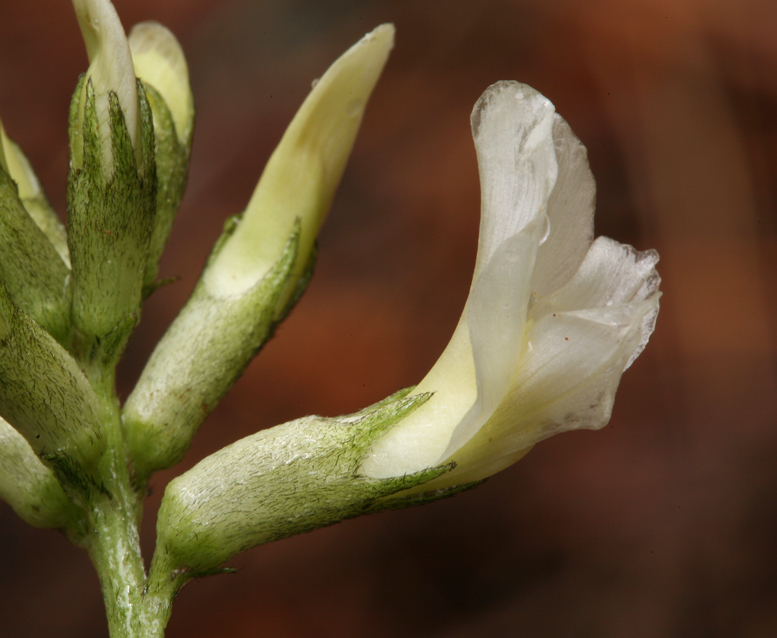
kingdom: Plantae
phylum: Tracheophyta
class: Magnoliopsida
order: Fabales
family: Fabaceae
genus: Astragalus
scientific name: Astragalus webberi
